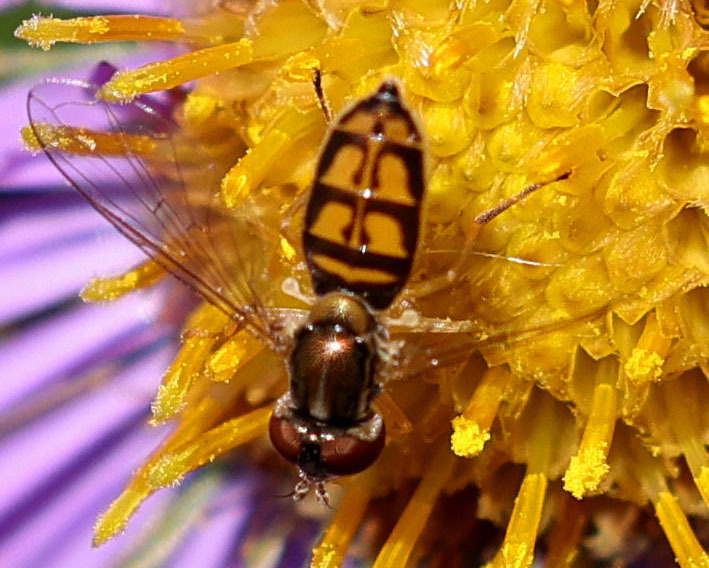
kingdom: Animalia
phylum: Arthropoda
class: Insecta
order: Diptera
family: Syrphidae
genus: Toxomerus
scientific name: Toxomerus marginatus
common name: Syrphid fly
